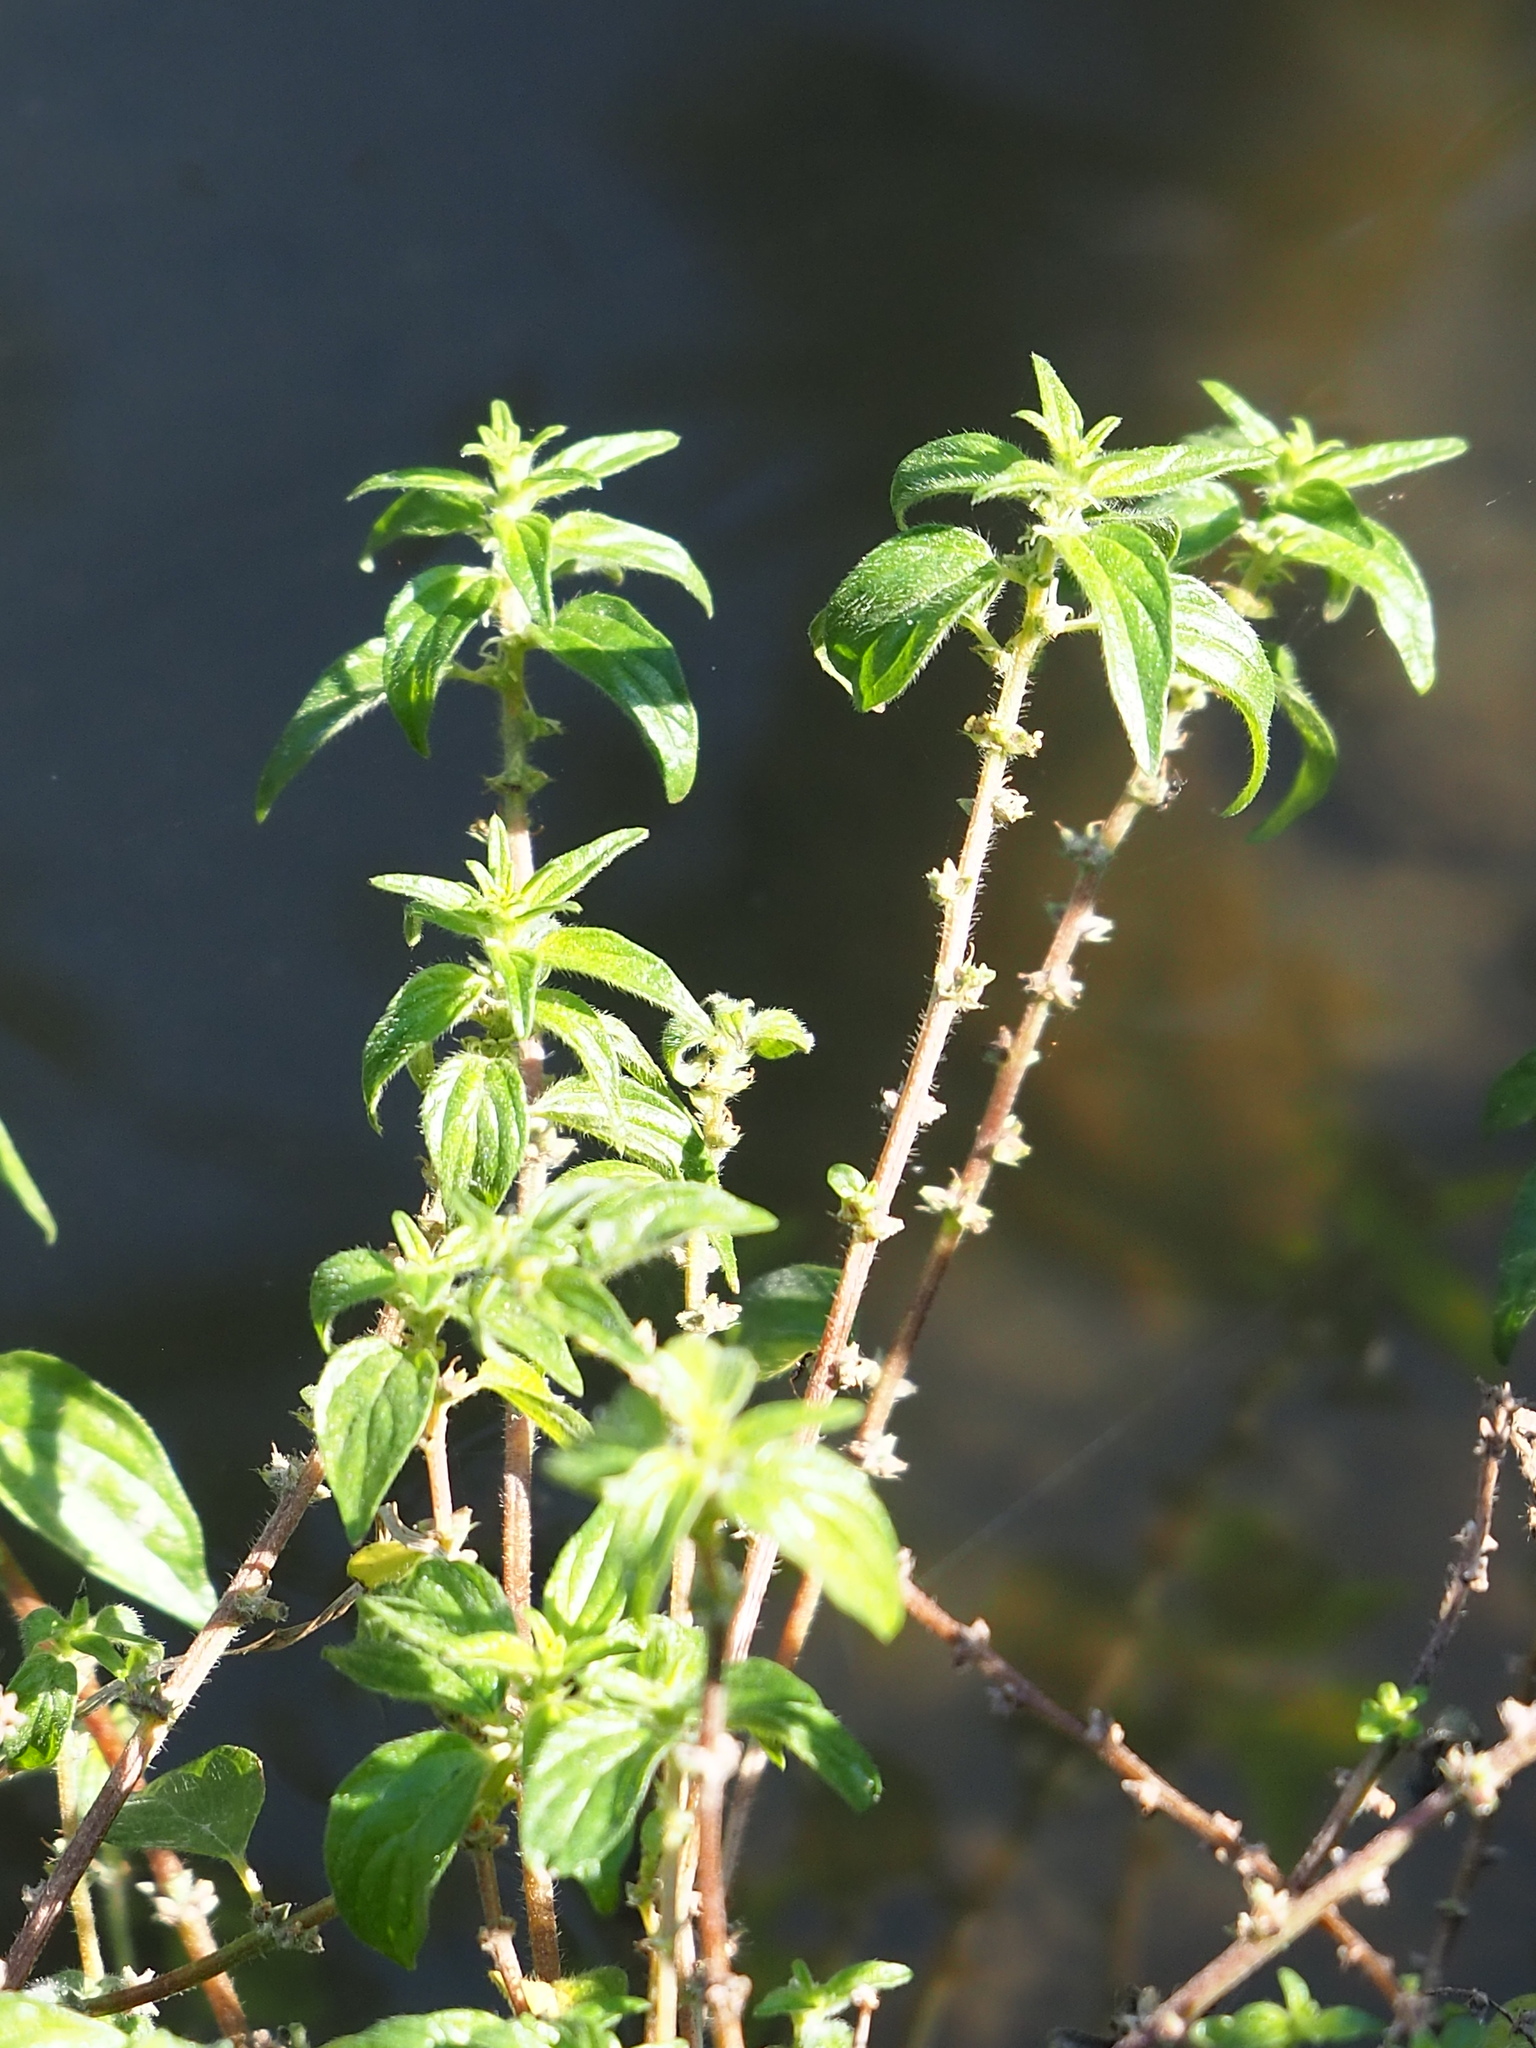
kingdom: Plantae
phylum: Tracheophyta
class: Magnoliopsida
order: Rosales
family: Urticaceae
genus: Pouzolzia
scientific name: Pouzolzia zeylanica
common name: Graceful pouzolzsbush
